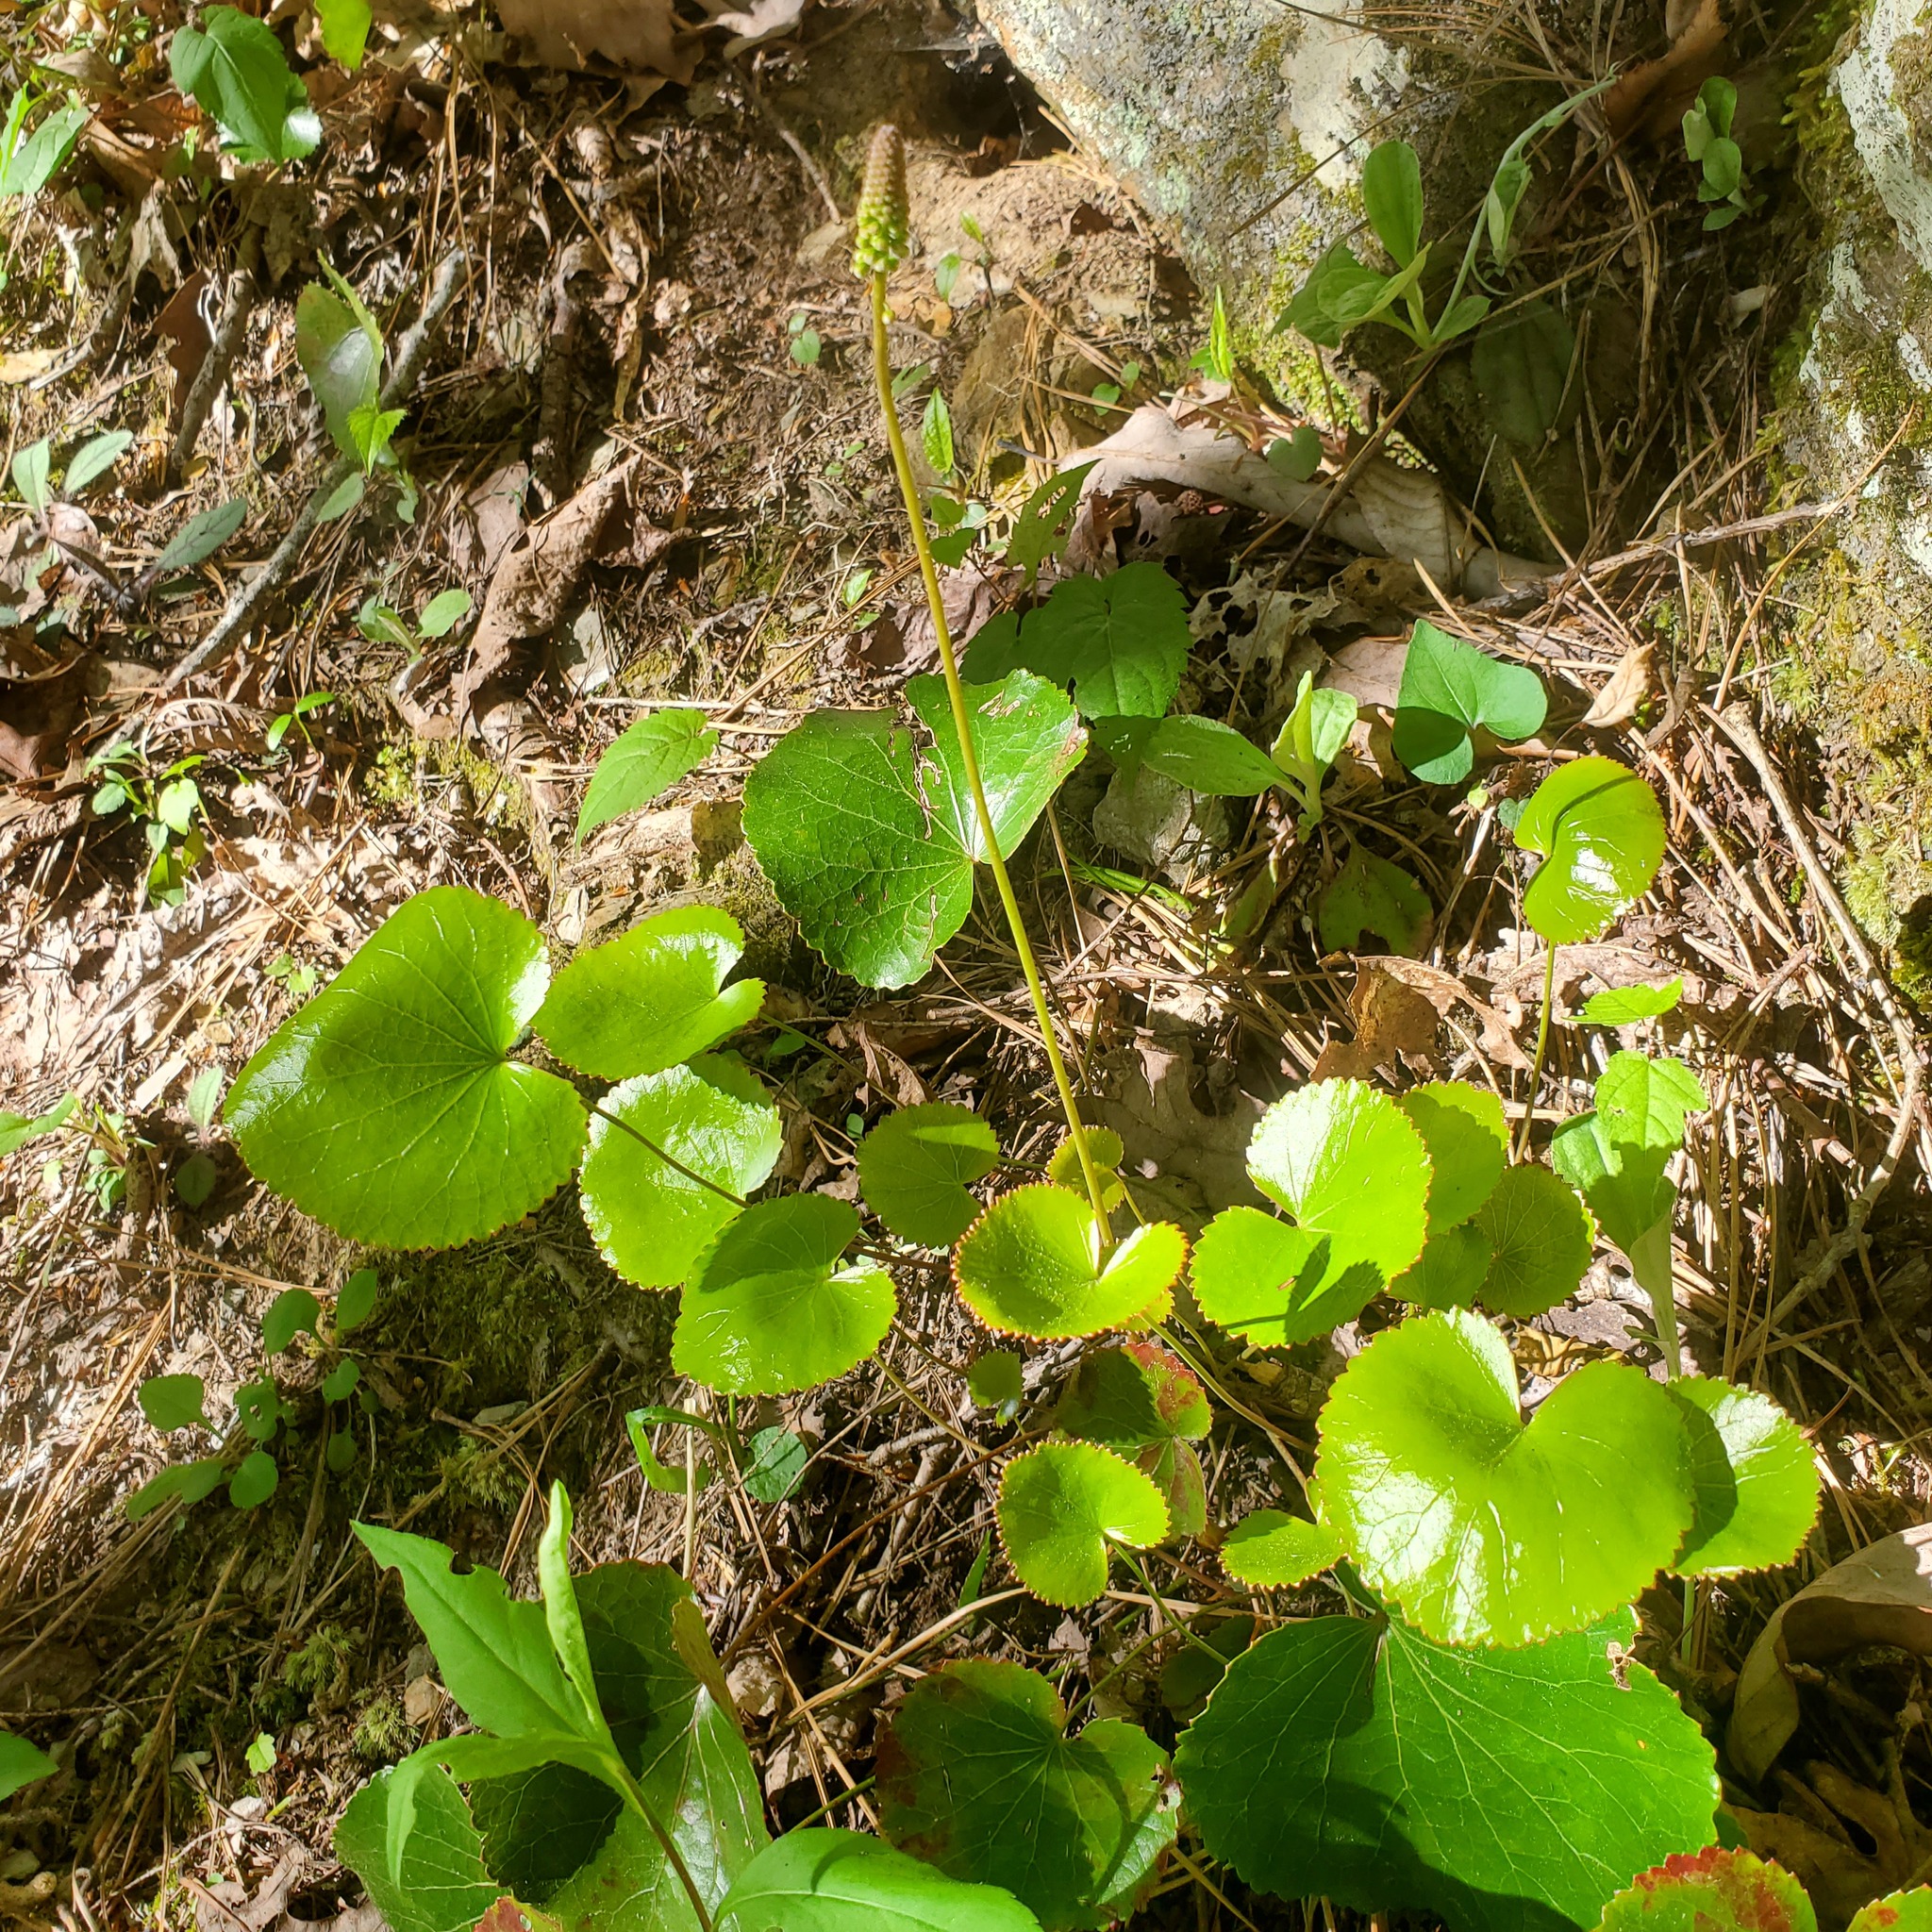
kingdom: Plantae
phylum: Tracheophyta
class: Magnoliopsida
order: Ericales
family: Diapensiaceae
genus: Galax
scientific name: Galax urceolata
